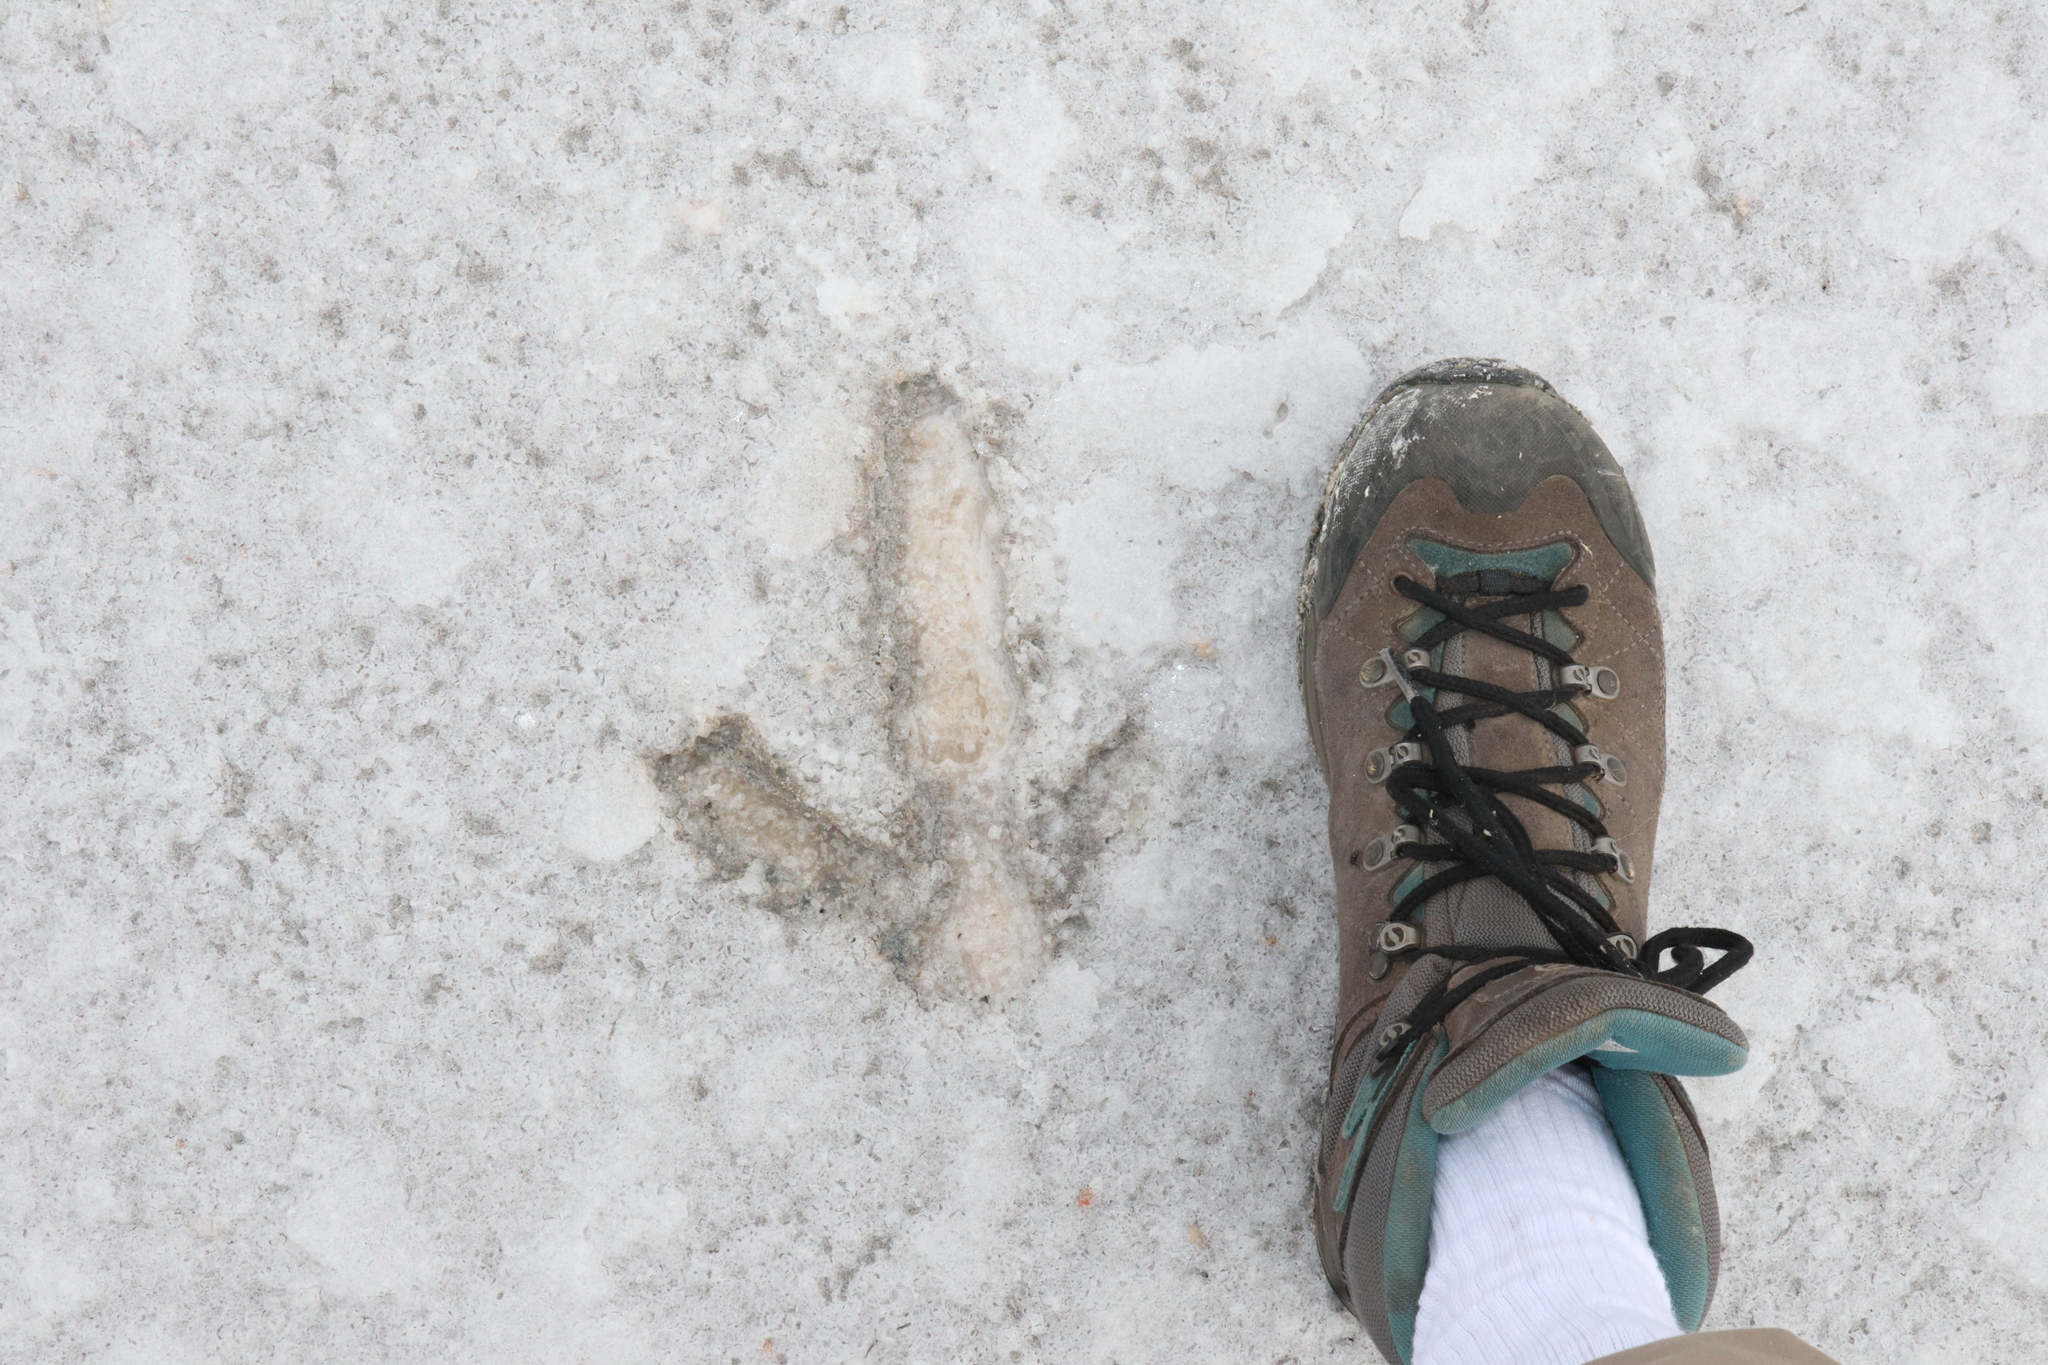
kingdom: Animalia
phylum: Chordata
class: Aves
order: Casuariiformes
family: Dromaiidae
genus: Dromaius
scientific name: Dromaius novaehollandiae
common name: Emu
